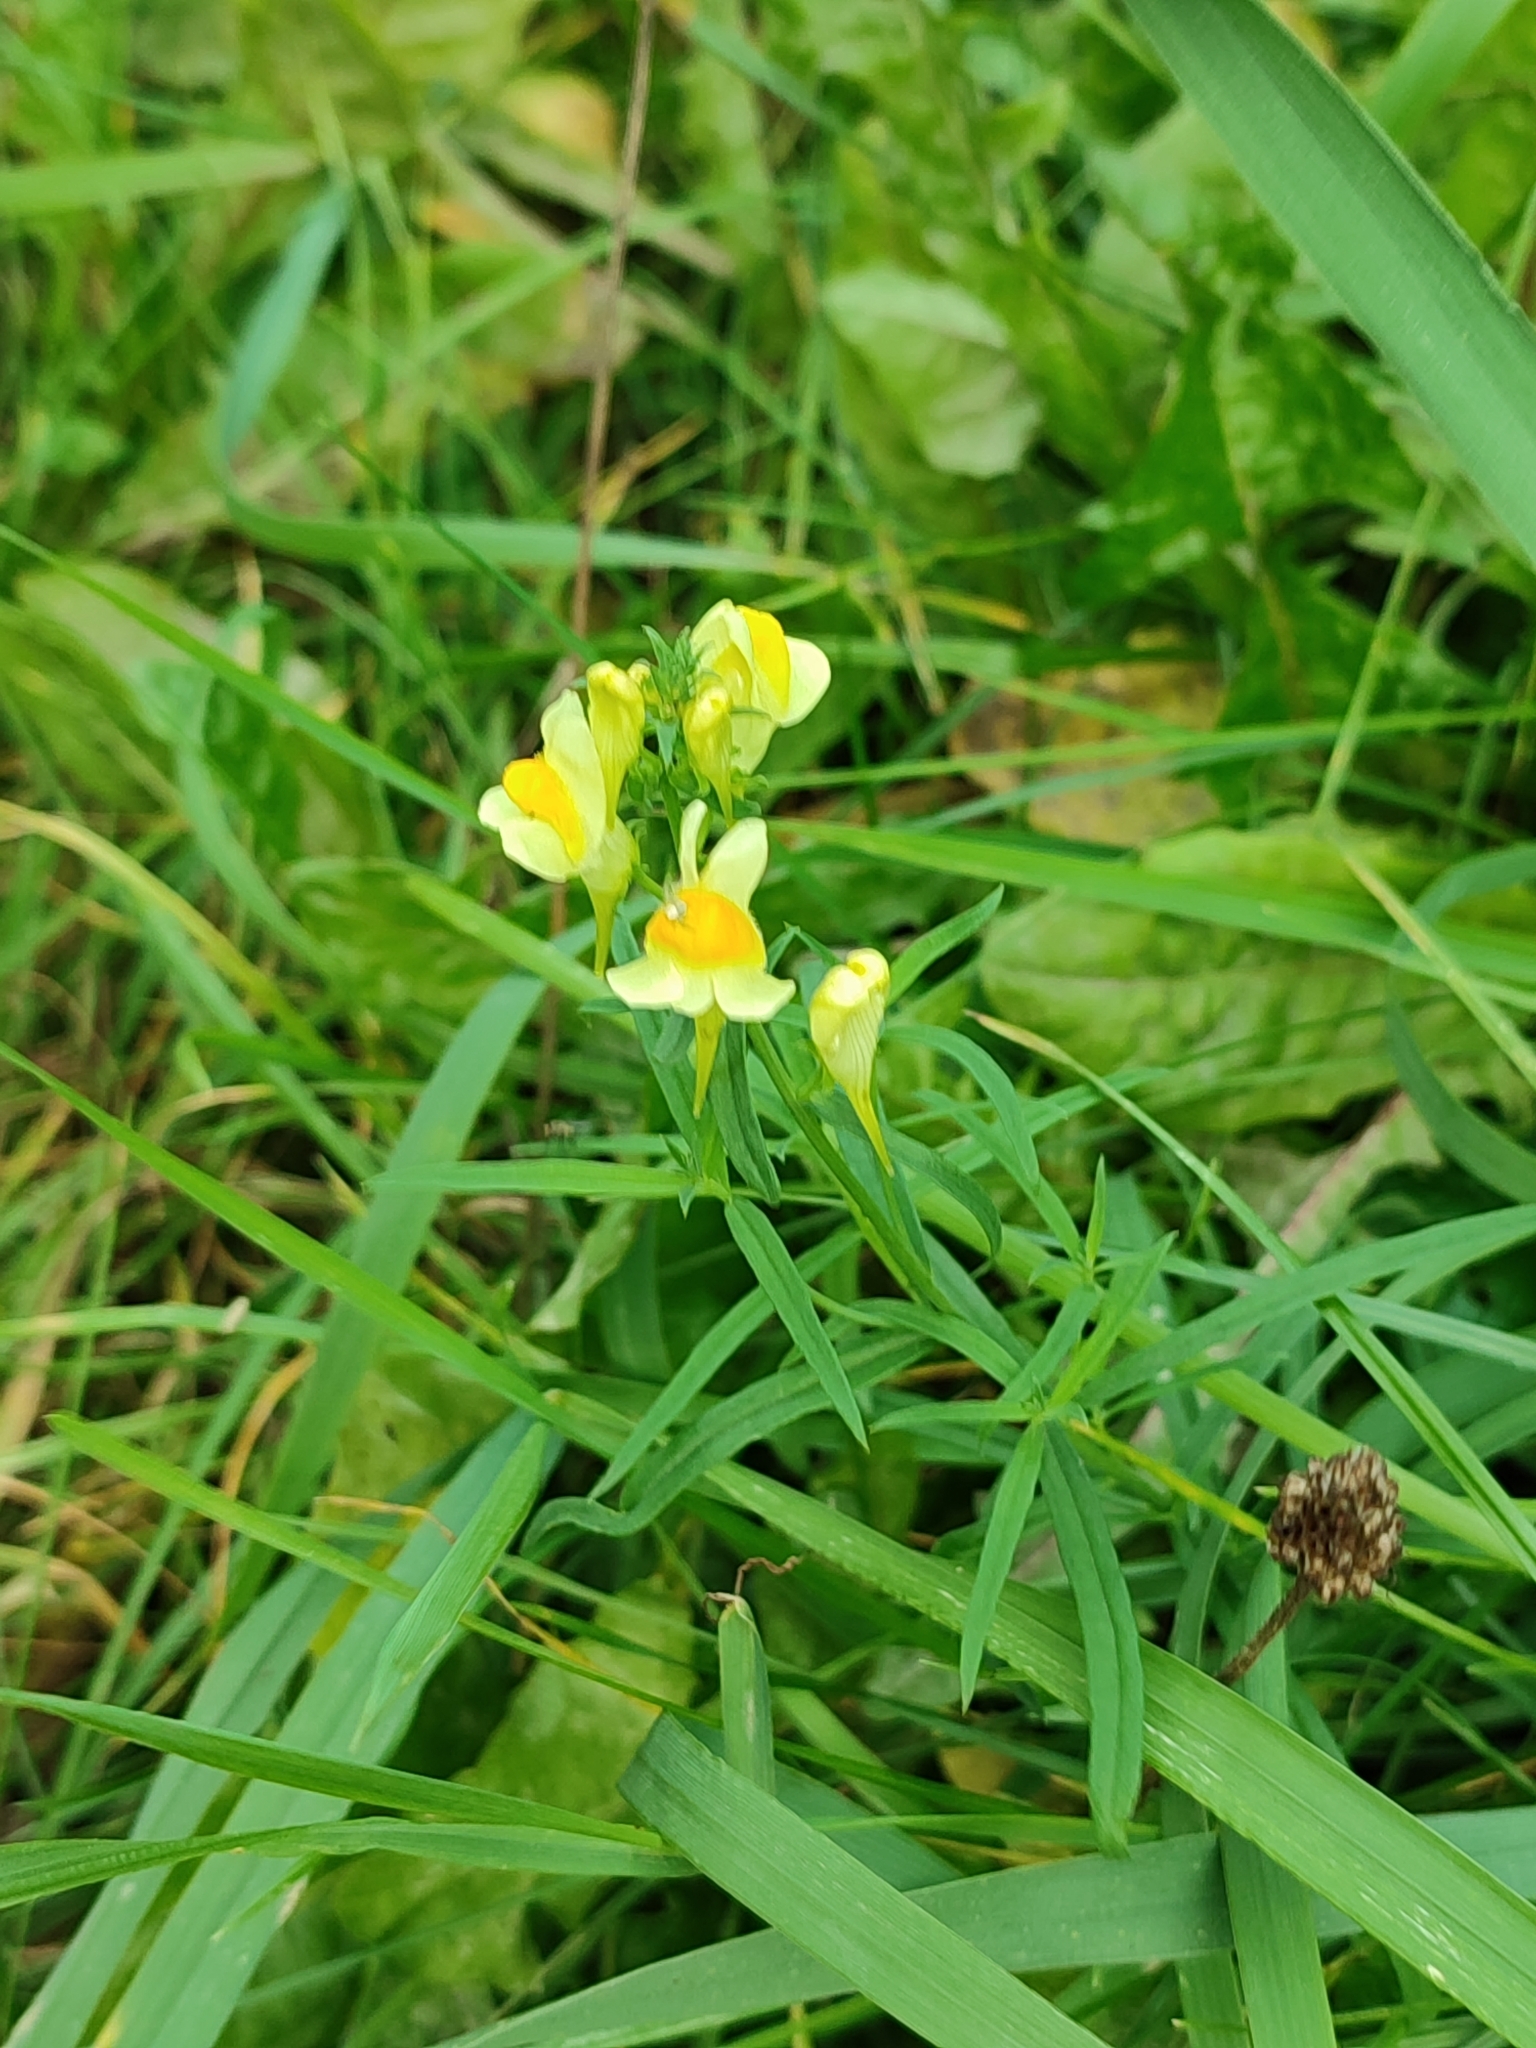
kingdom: Plantae
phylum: Tracheophyta
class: Magnoliopsida
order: Lamiales
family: Plantaginaceae
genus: Linaria
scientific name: Linaria vulgaris
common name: Butter and eggs
